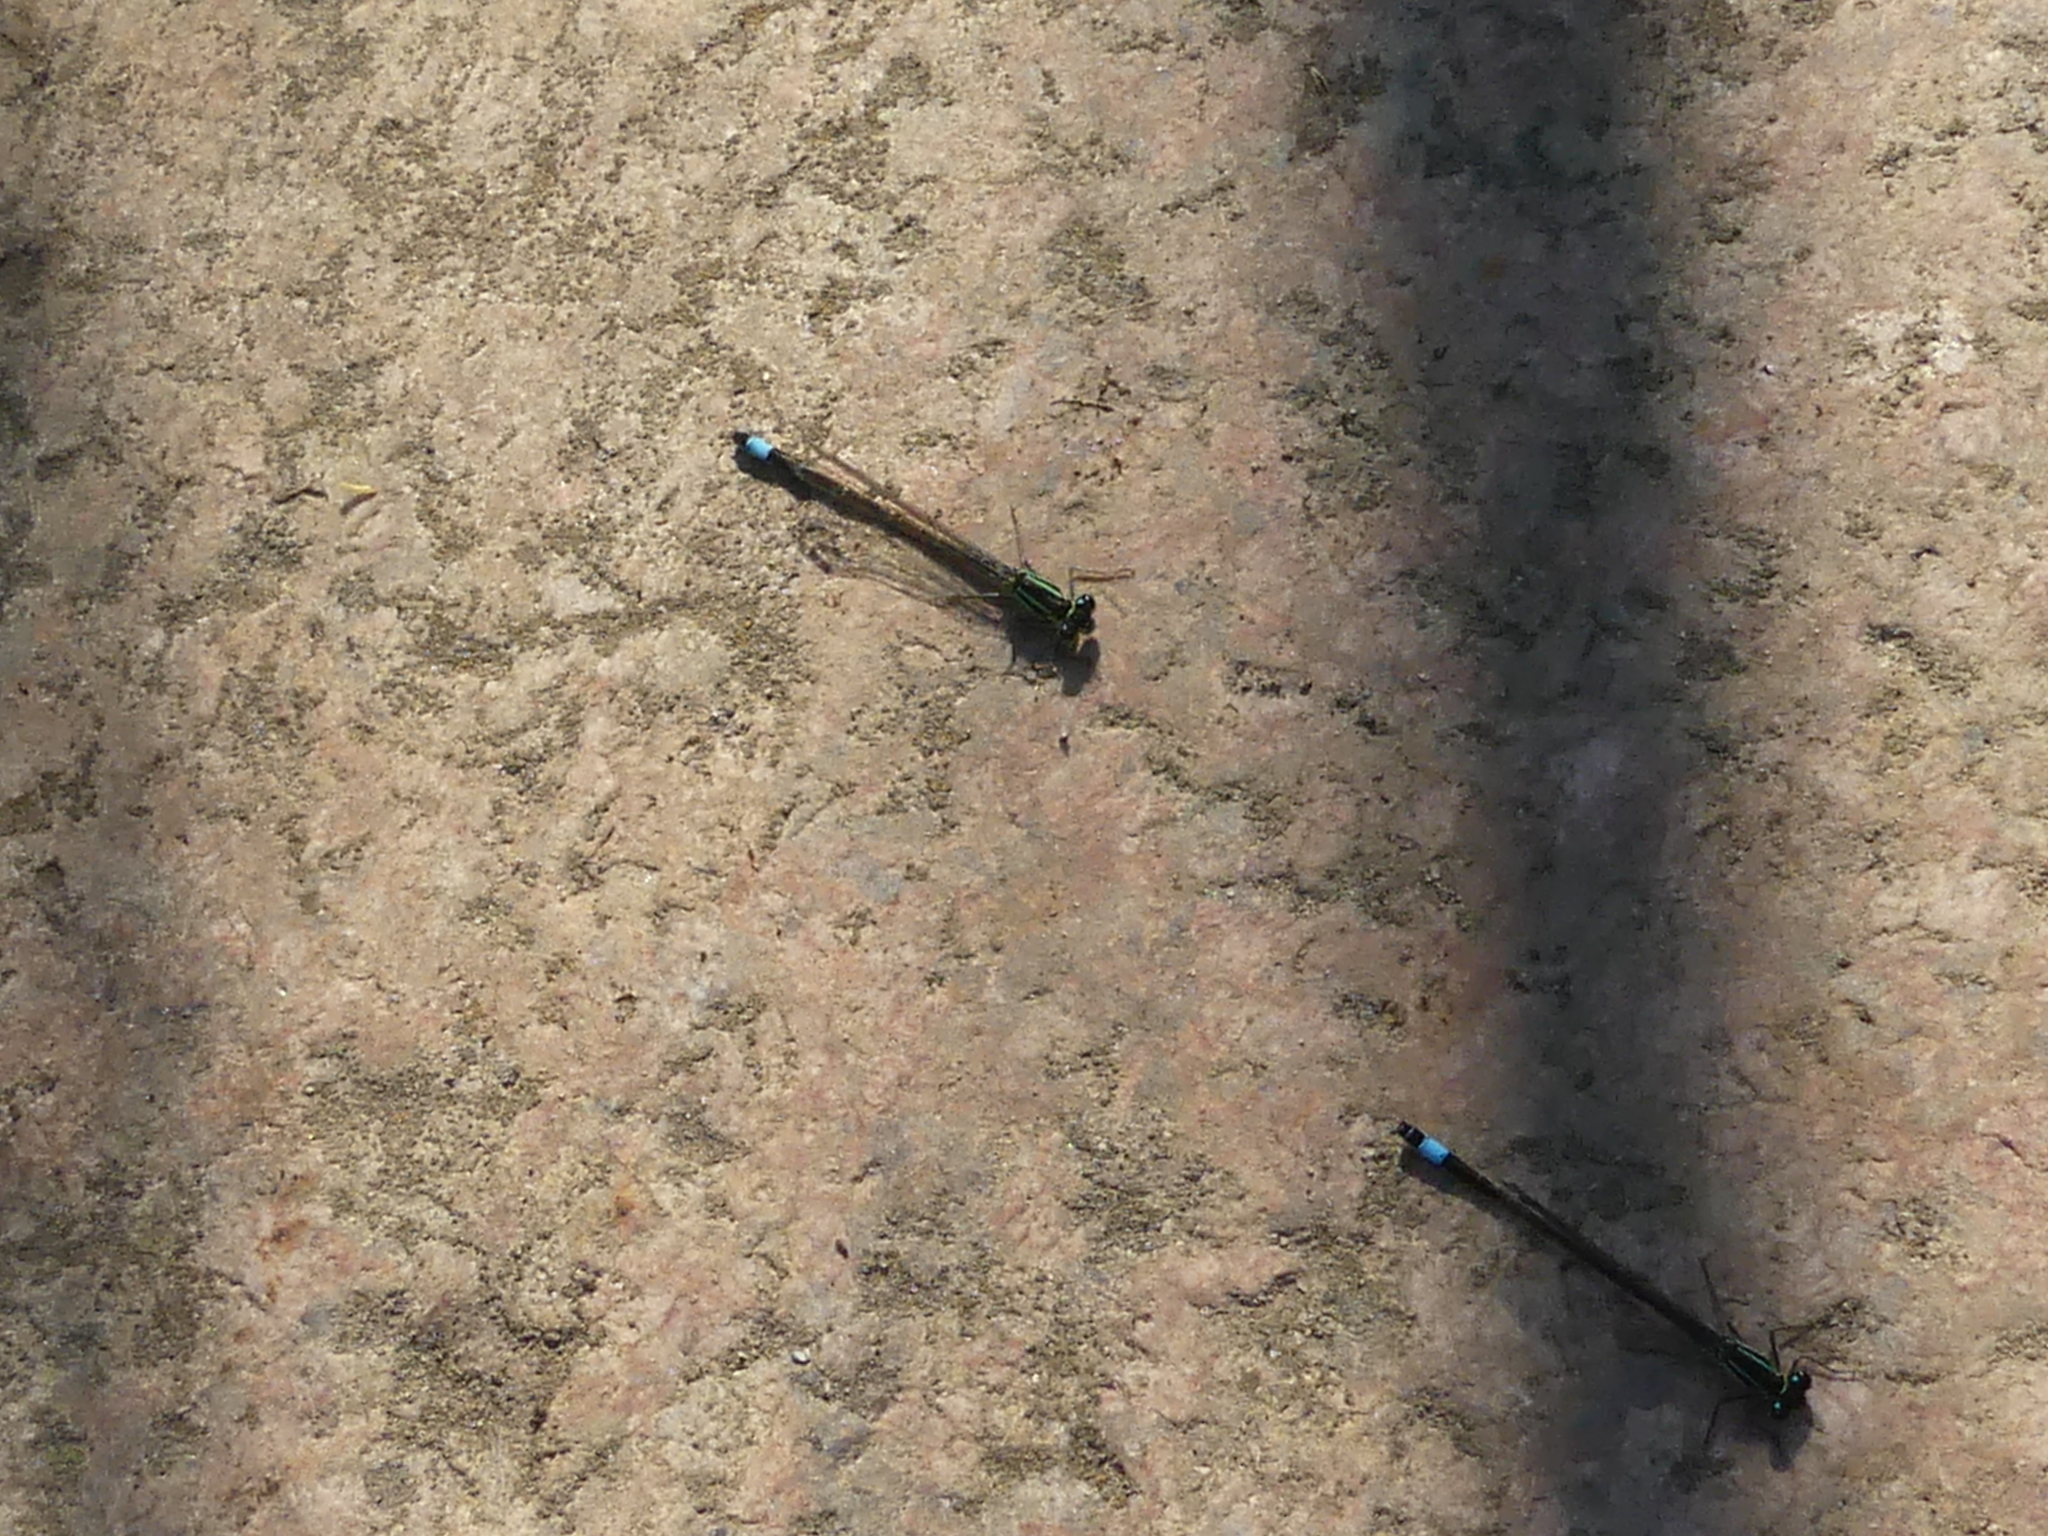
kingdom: Animalia
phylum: Arthropoda
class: Insecta
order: Odonata
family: Coenagrionidae
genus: Ischnura
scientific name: Ischnura elegans
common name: Blue-tailed damselfly
